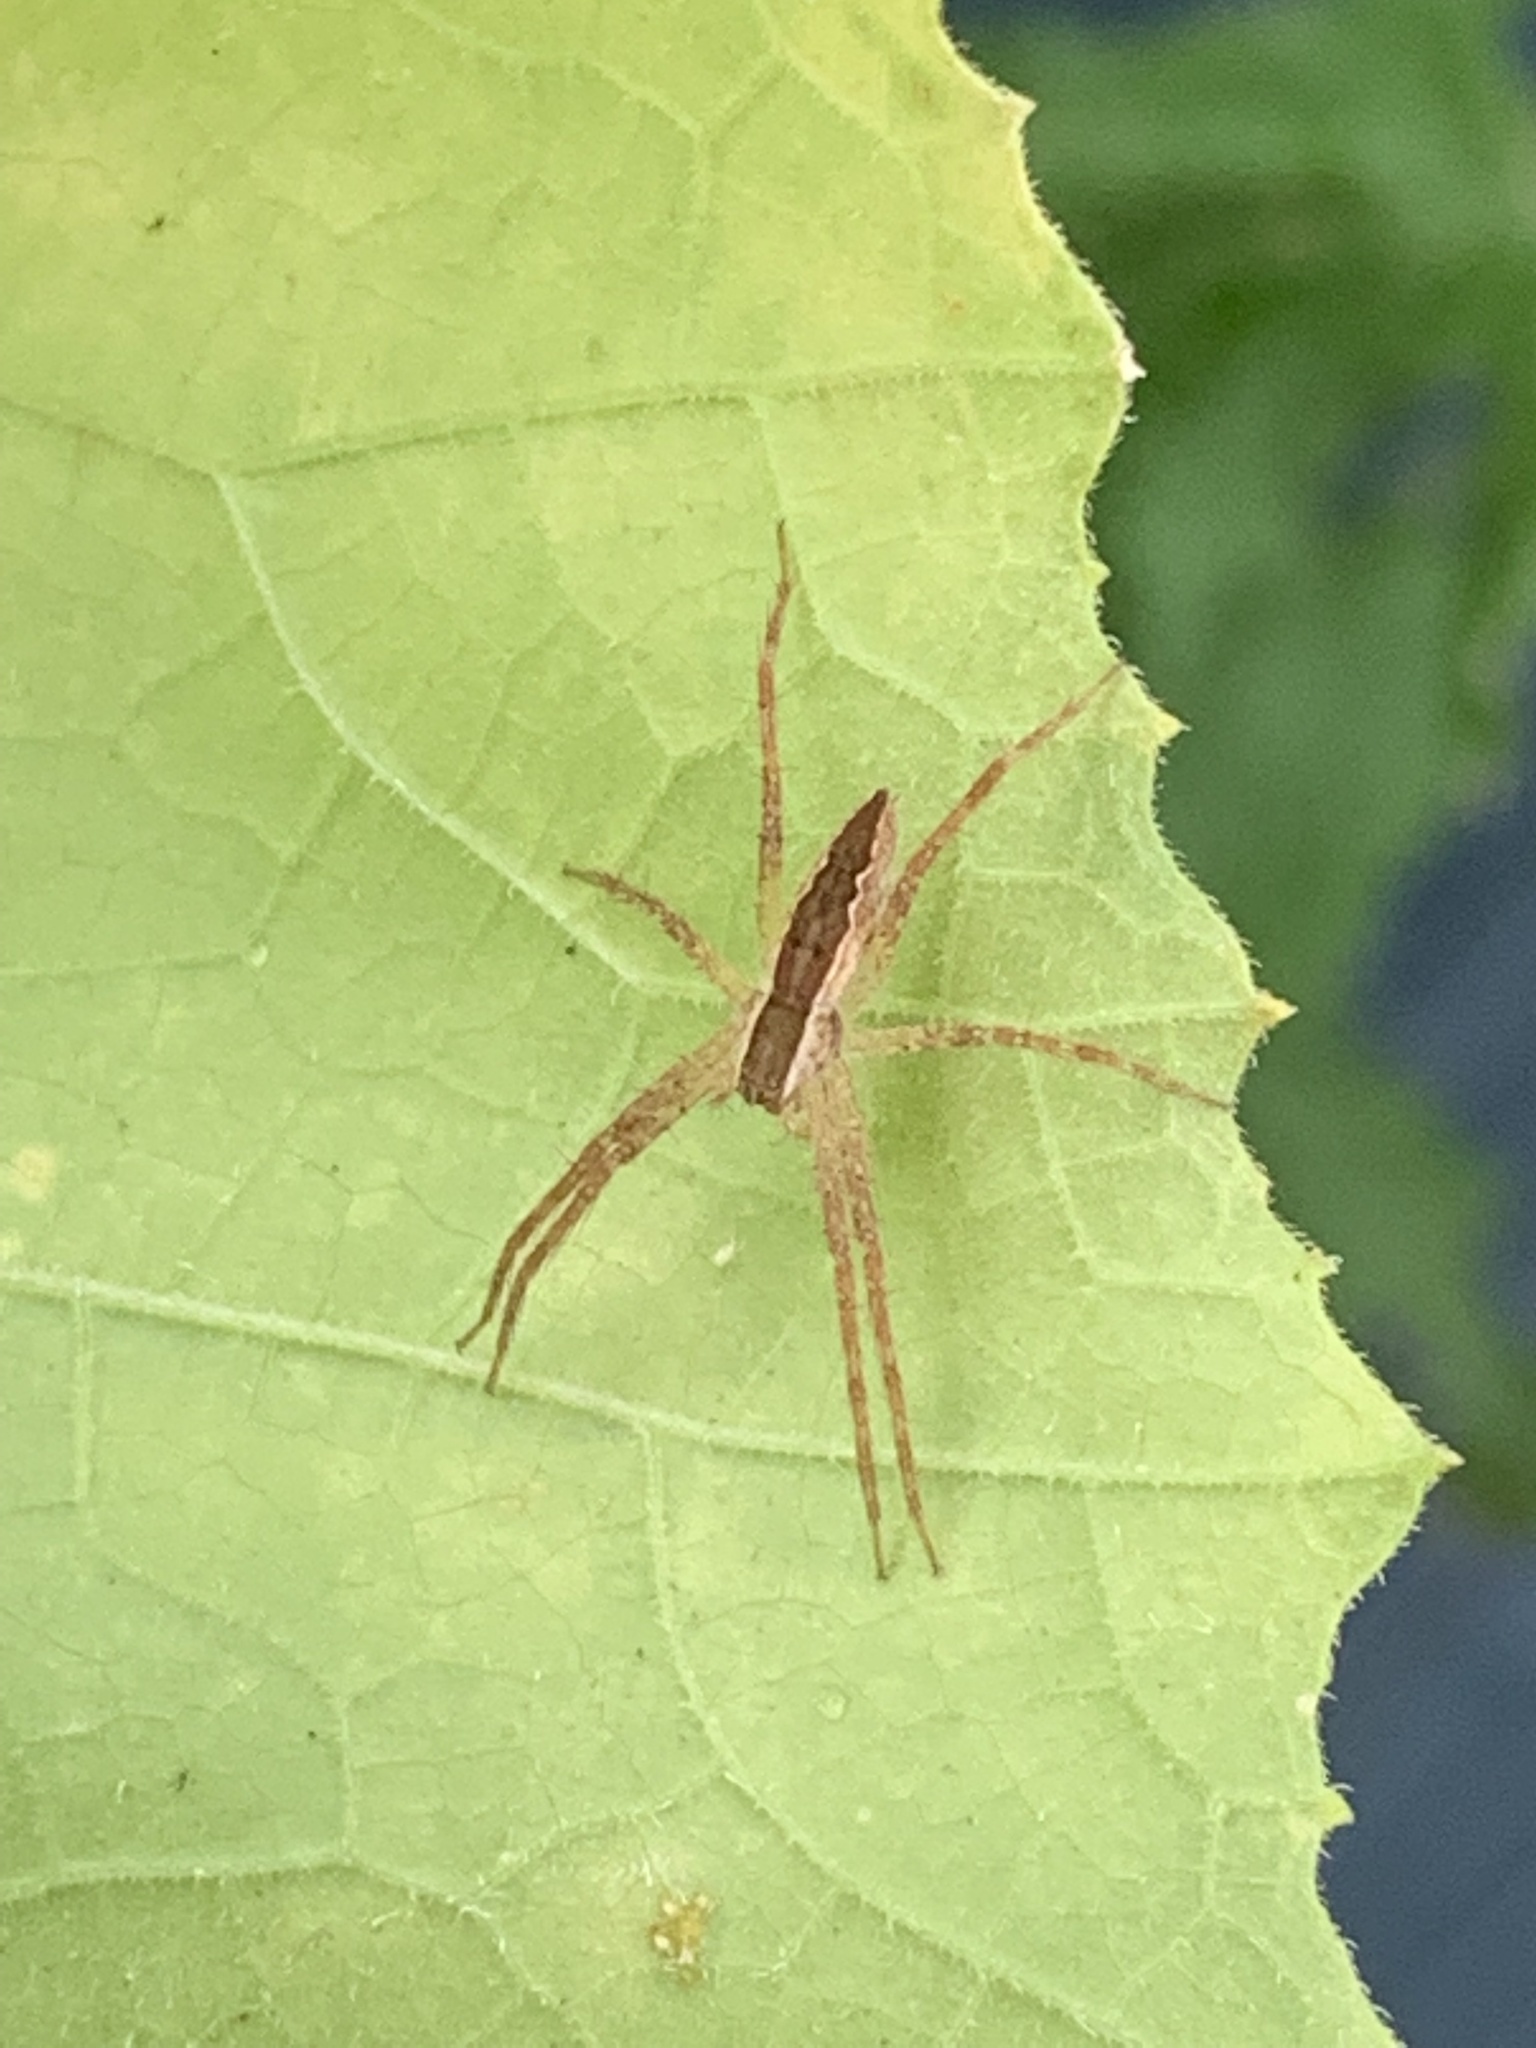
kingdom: Animalia
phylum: Arthropoda
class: Arachnida
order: Araneae
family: Pisauridae
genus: Pisaurina
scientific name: Pisaurina mira
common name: American nursery web spider
